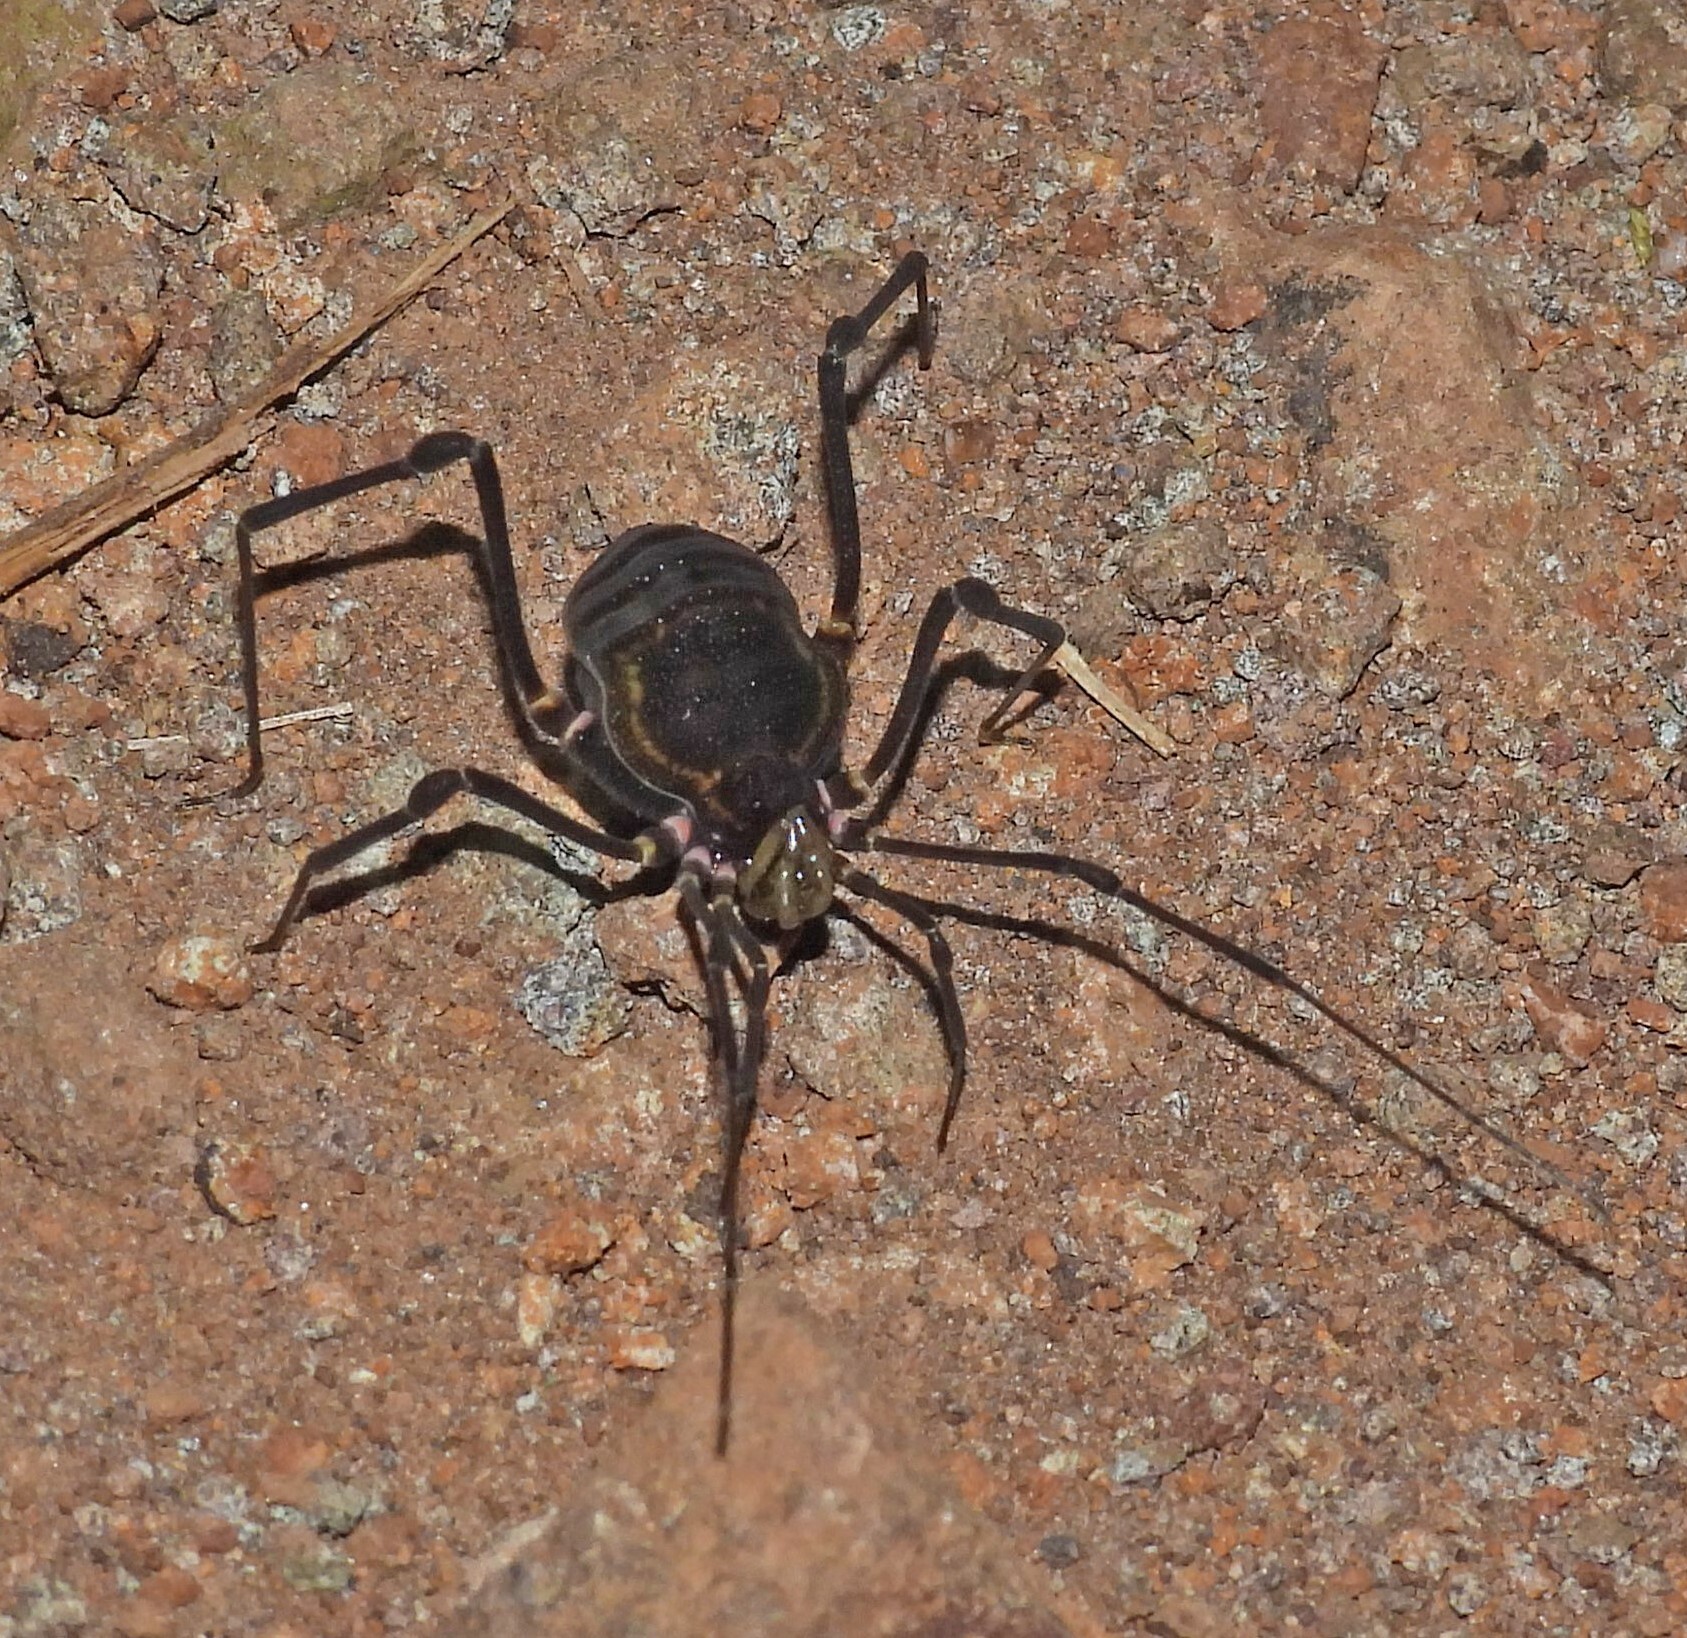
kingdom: Animalia
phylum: Arthropoda
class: Arachnida
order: Opiliones
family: Gonyleptidae
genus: Geraeocormobius
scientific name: Geraeocormobius sylvarum
